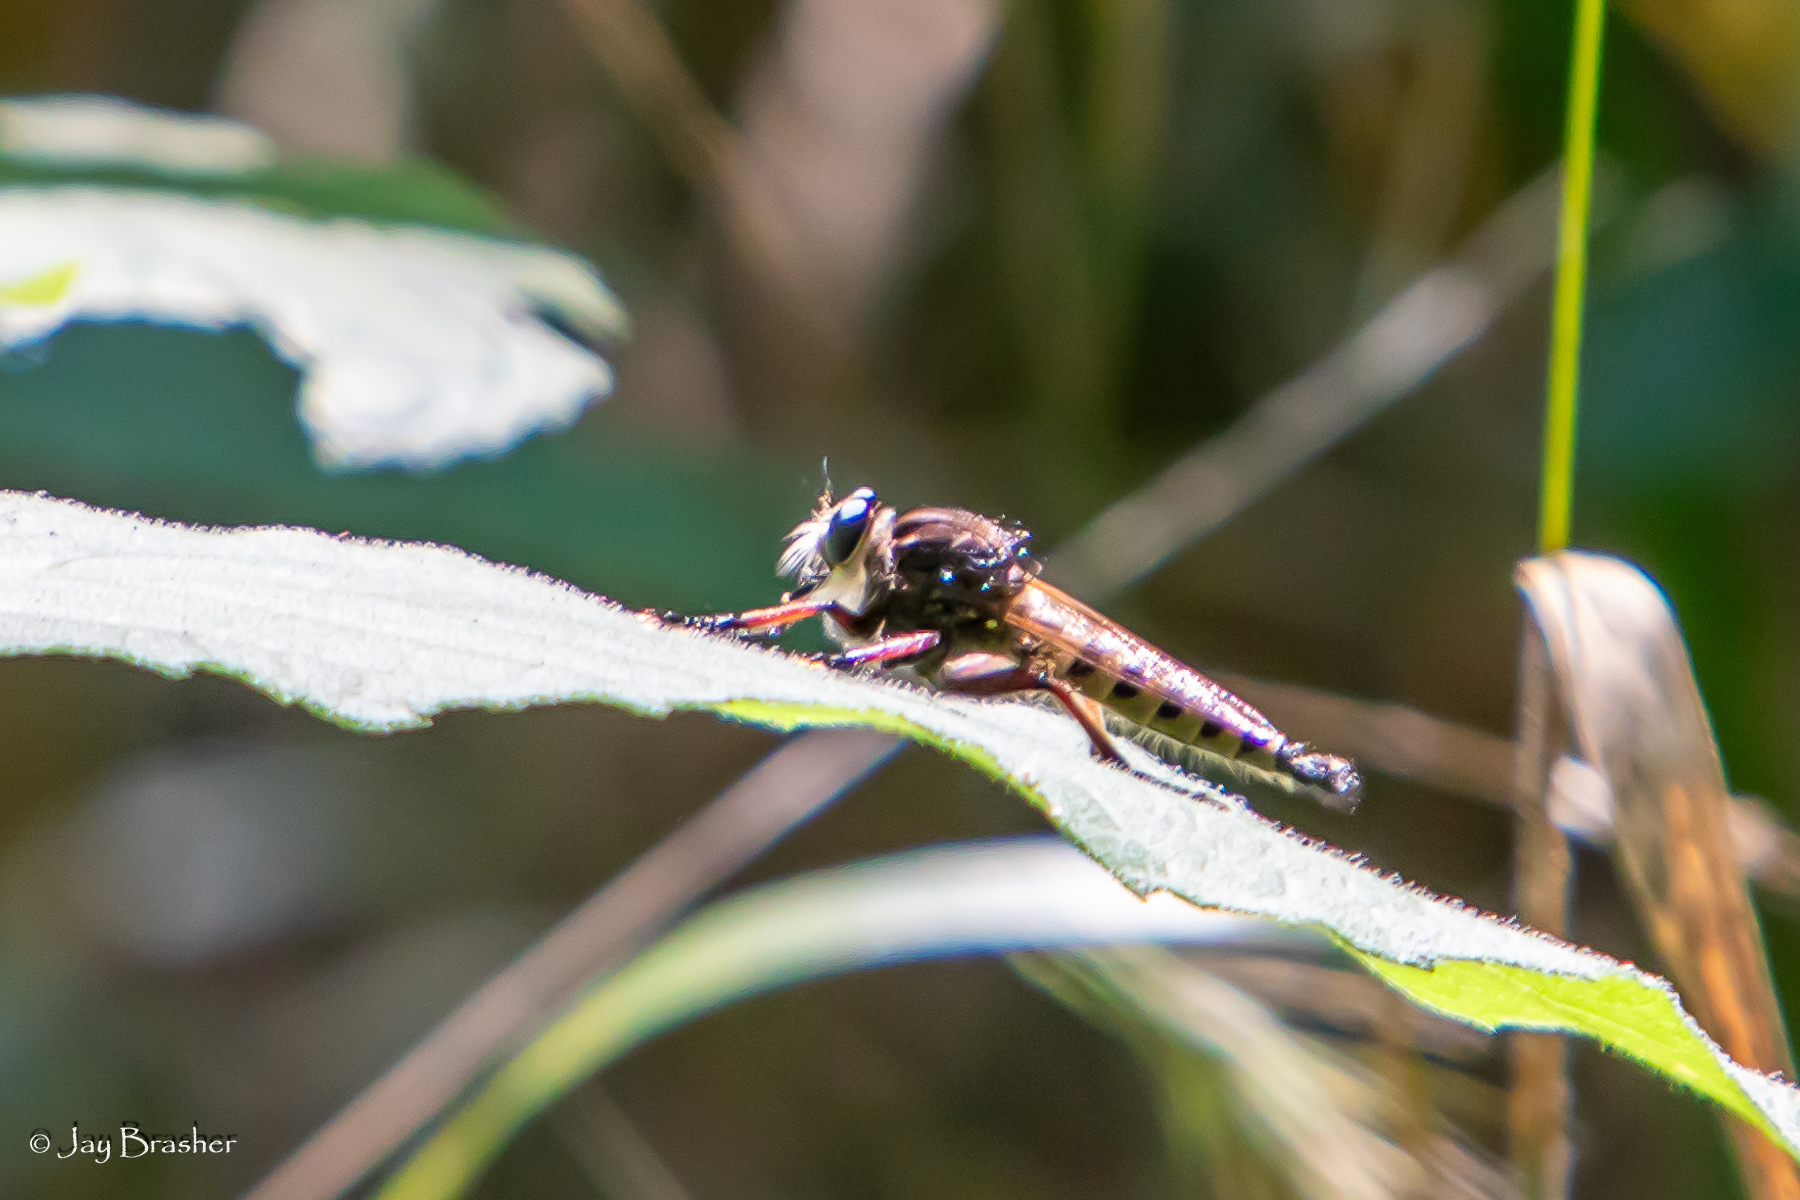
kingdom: Animalia
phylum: Arthropoda
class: Insecta
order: Diptera
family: Asilidae
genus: Promachus
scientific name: Promachus hinei
